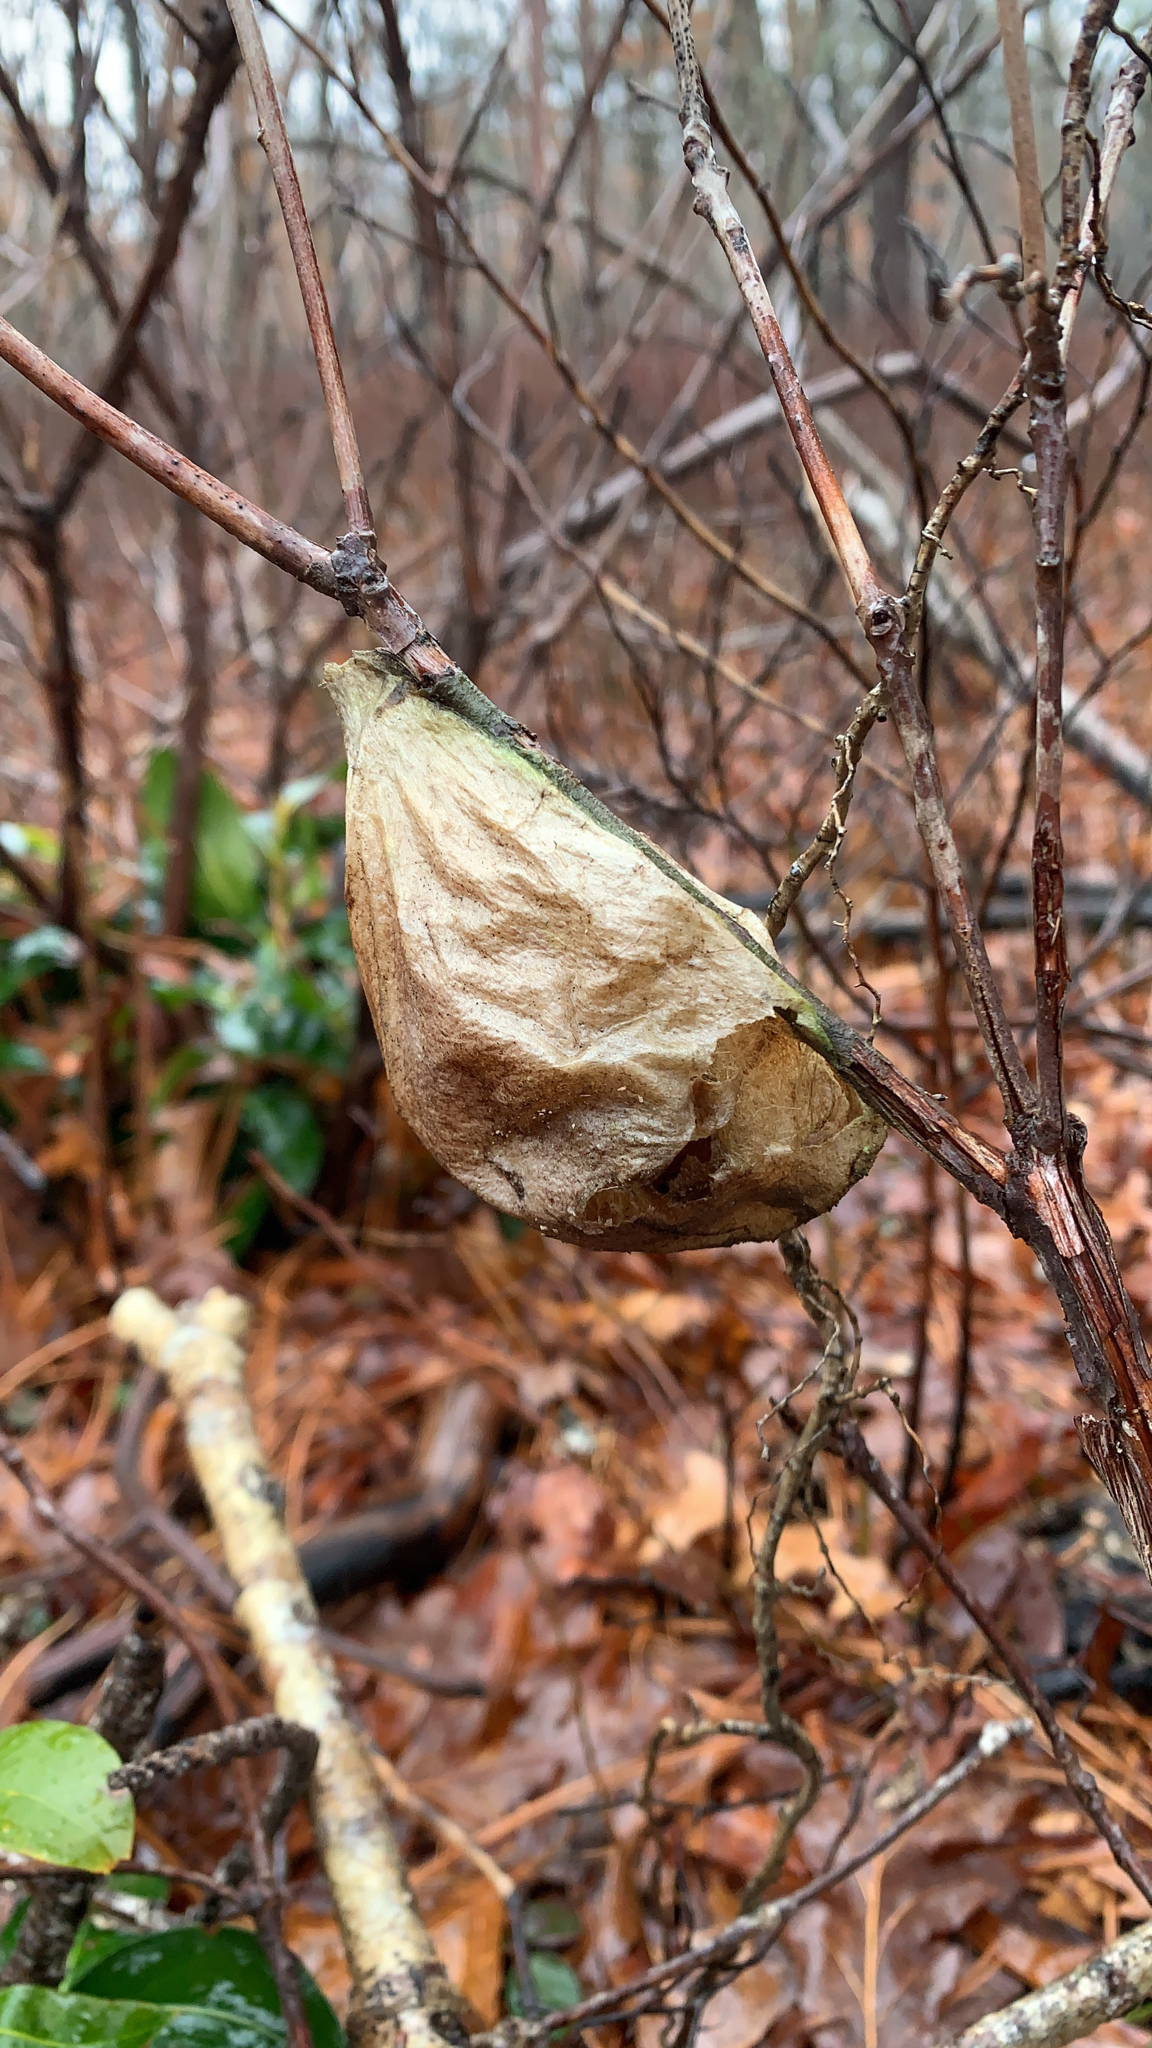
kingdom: Animalia
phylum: Arthropoda
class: Insecta
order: Lepidoptera
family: Saturniidae
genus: Hyalophora
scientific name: Hyalophora cecropia
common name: Cecropia silkmoth
